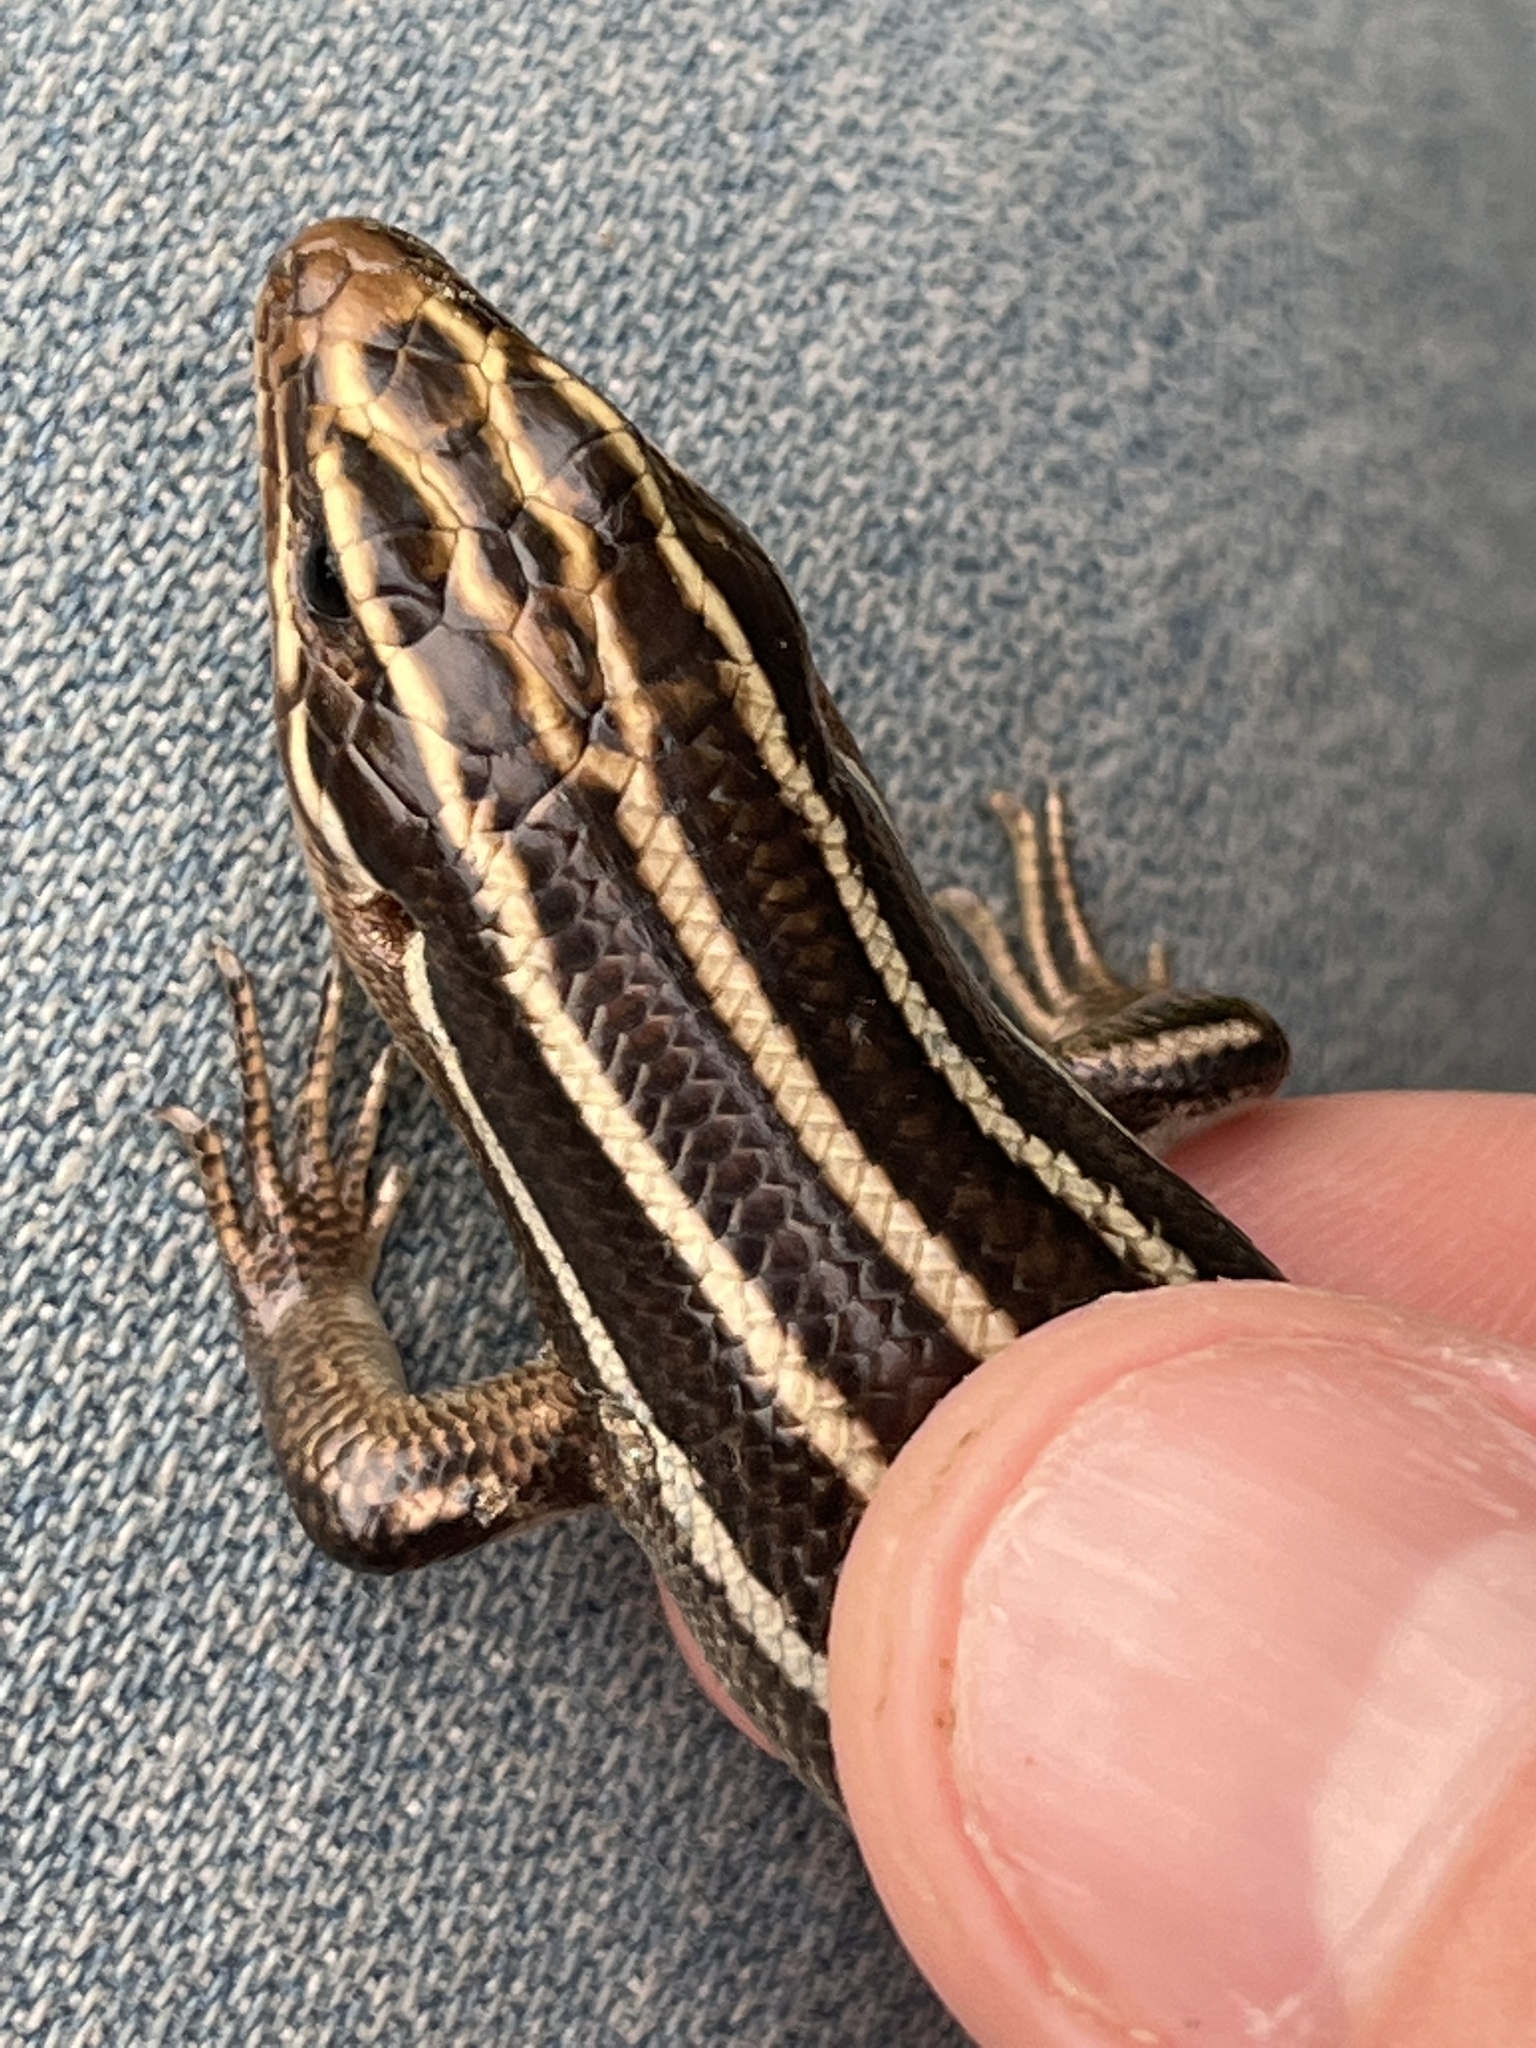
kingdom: Animalia
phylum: Chordata
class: Squamata
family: Scincidae
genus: Plestiodon
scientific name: Plestiodon fasciatus
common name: Five-lined skink
